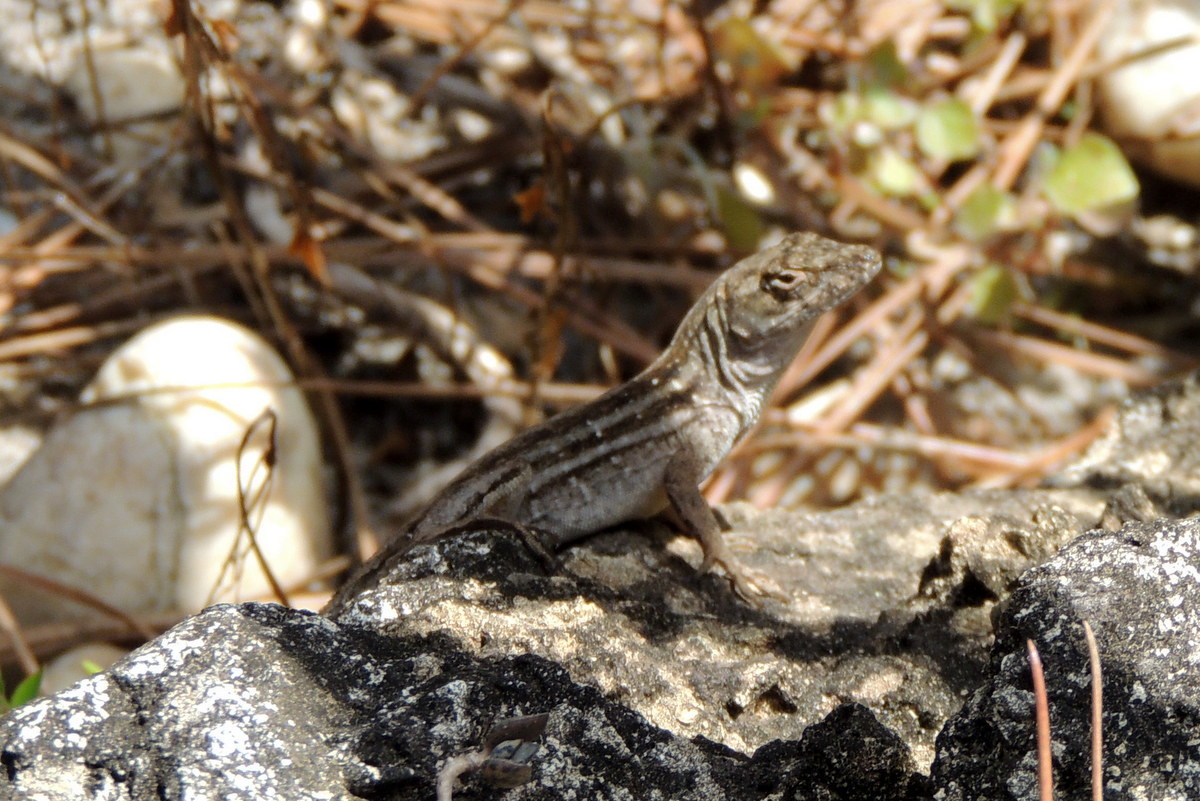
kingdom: Animalia
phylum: Chordata
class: Squamata
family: Dactyloidae
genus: Anolis
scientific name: Anolis sagrei
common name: Brown anole
